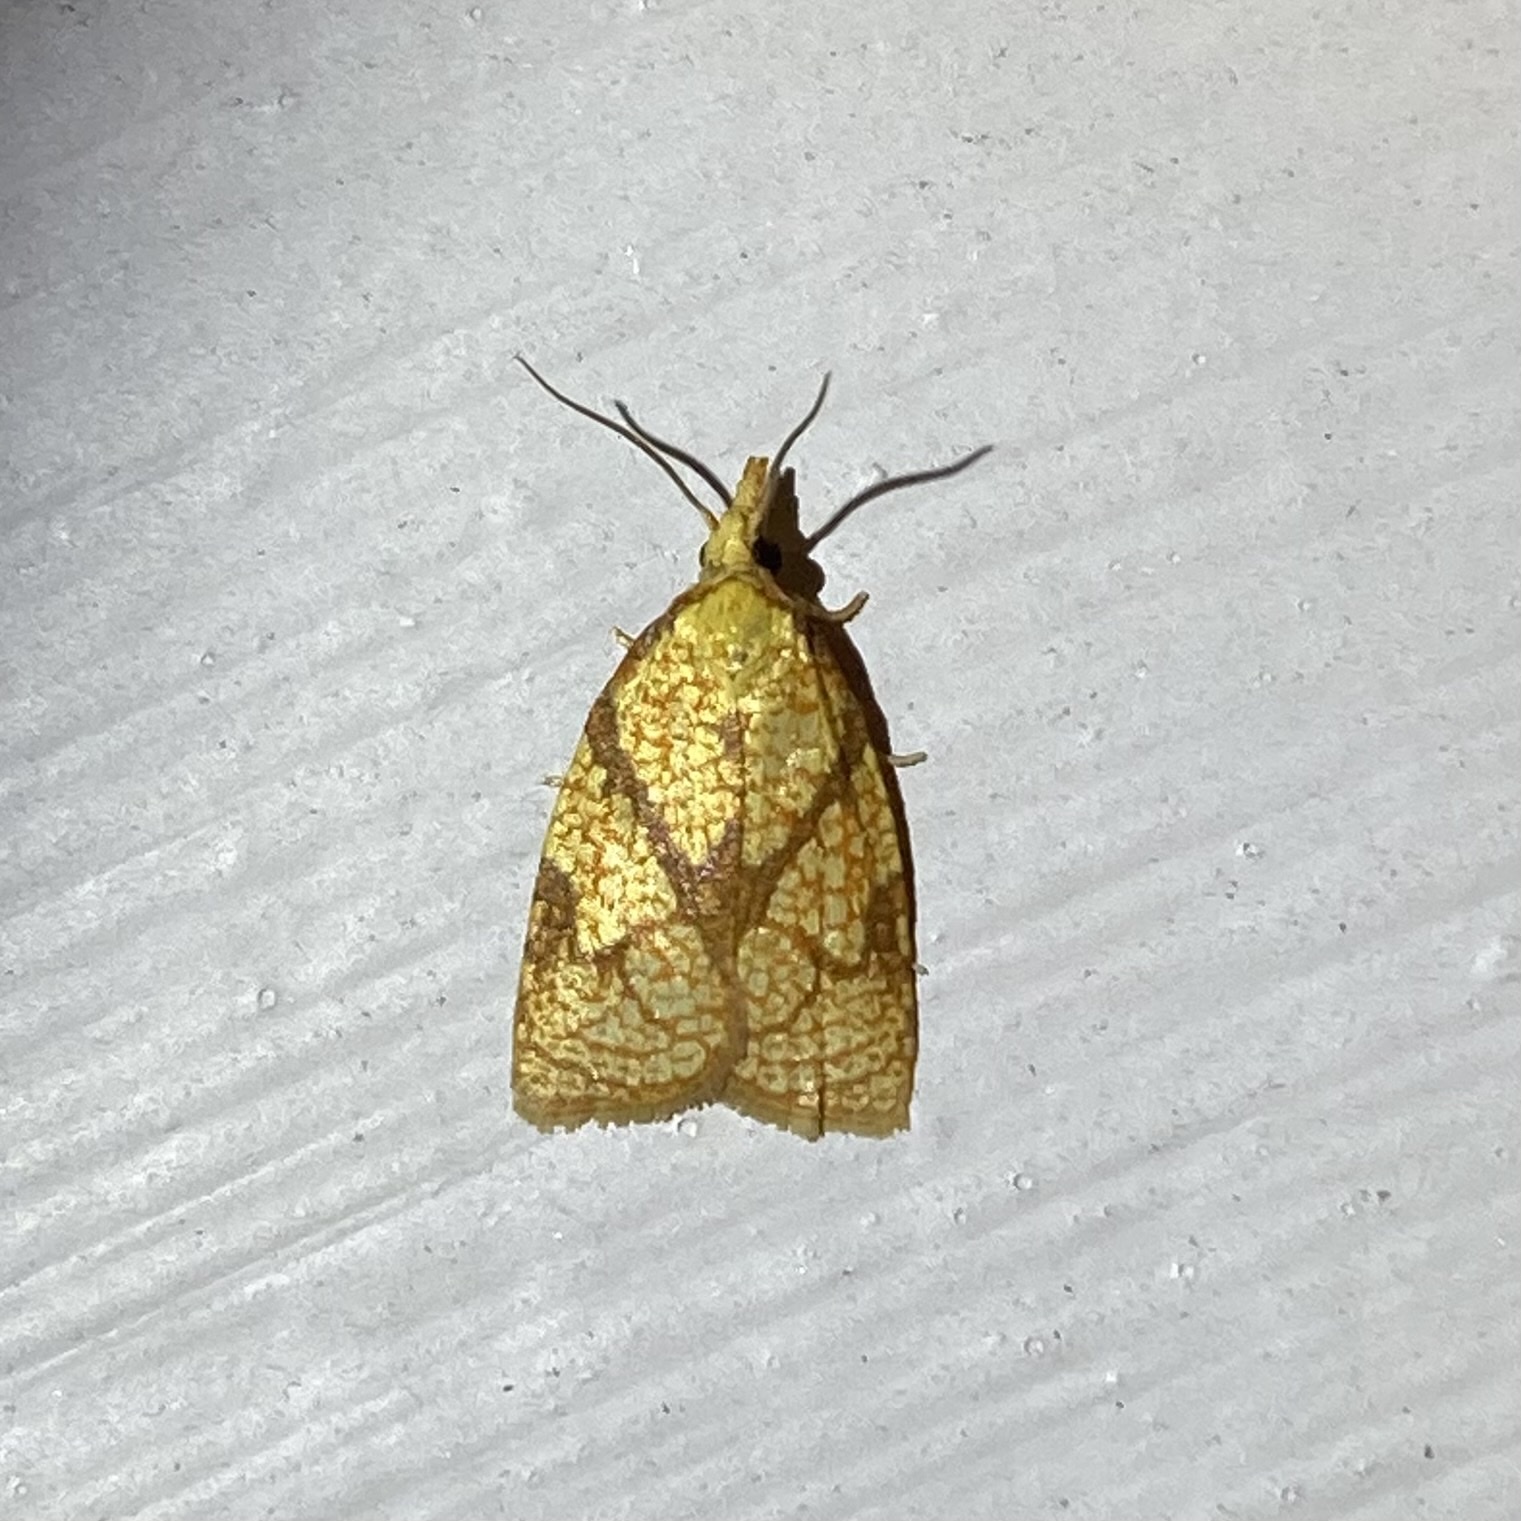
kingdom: Animalia
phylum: Arthropoda
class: Insecta
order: Lepidoptera
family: Tortricidae
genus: Cenopis
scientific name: Cenopis reticulatana
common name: Reticulated fruitworm moth
